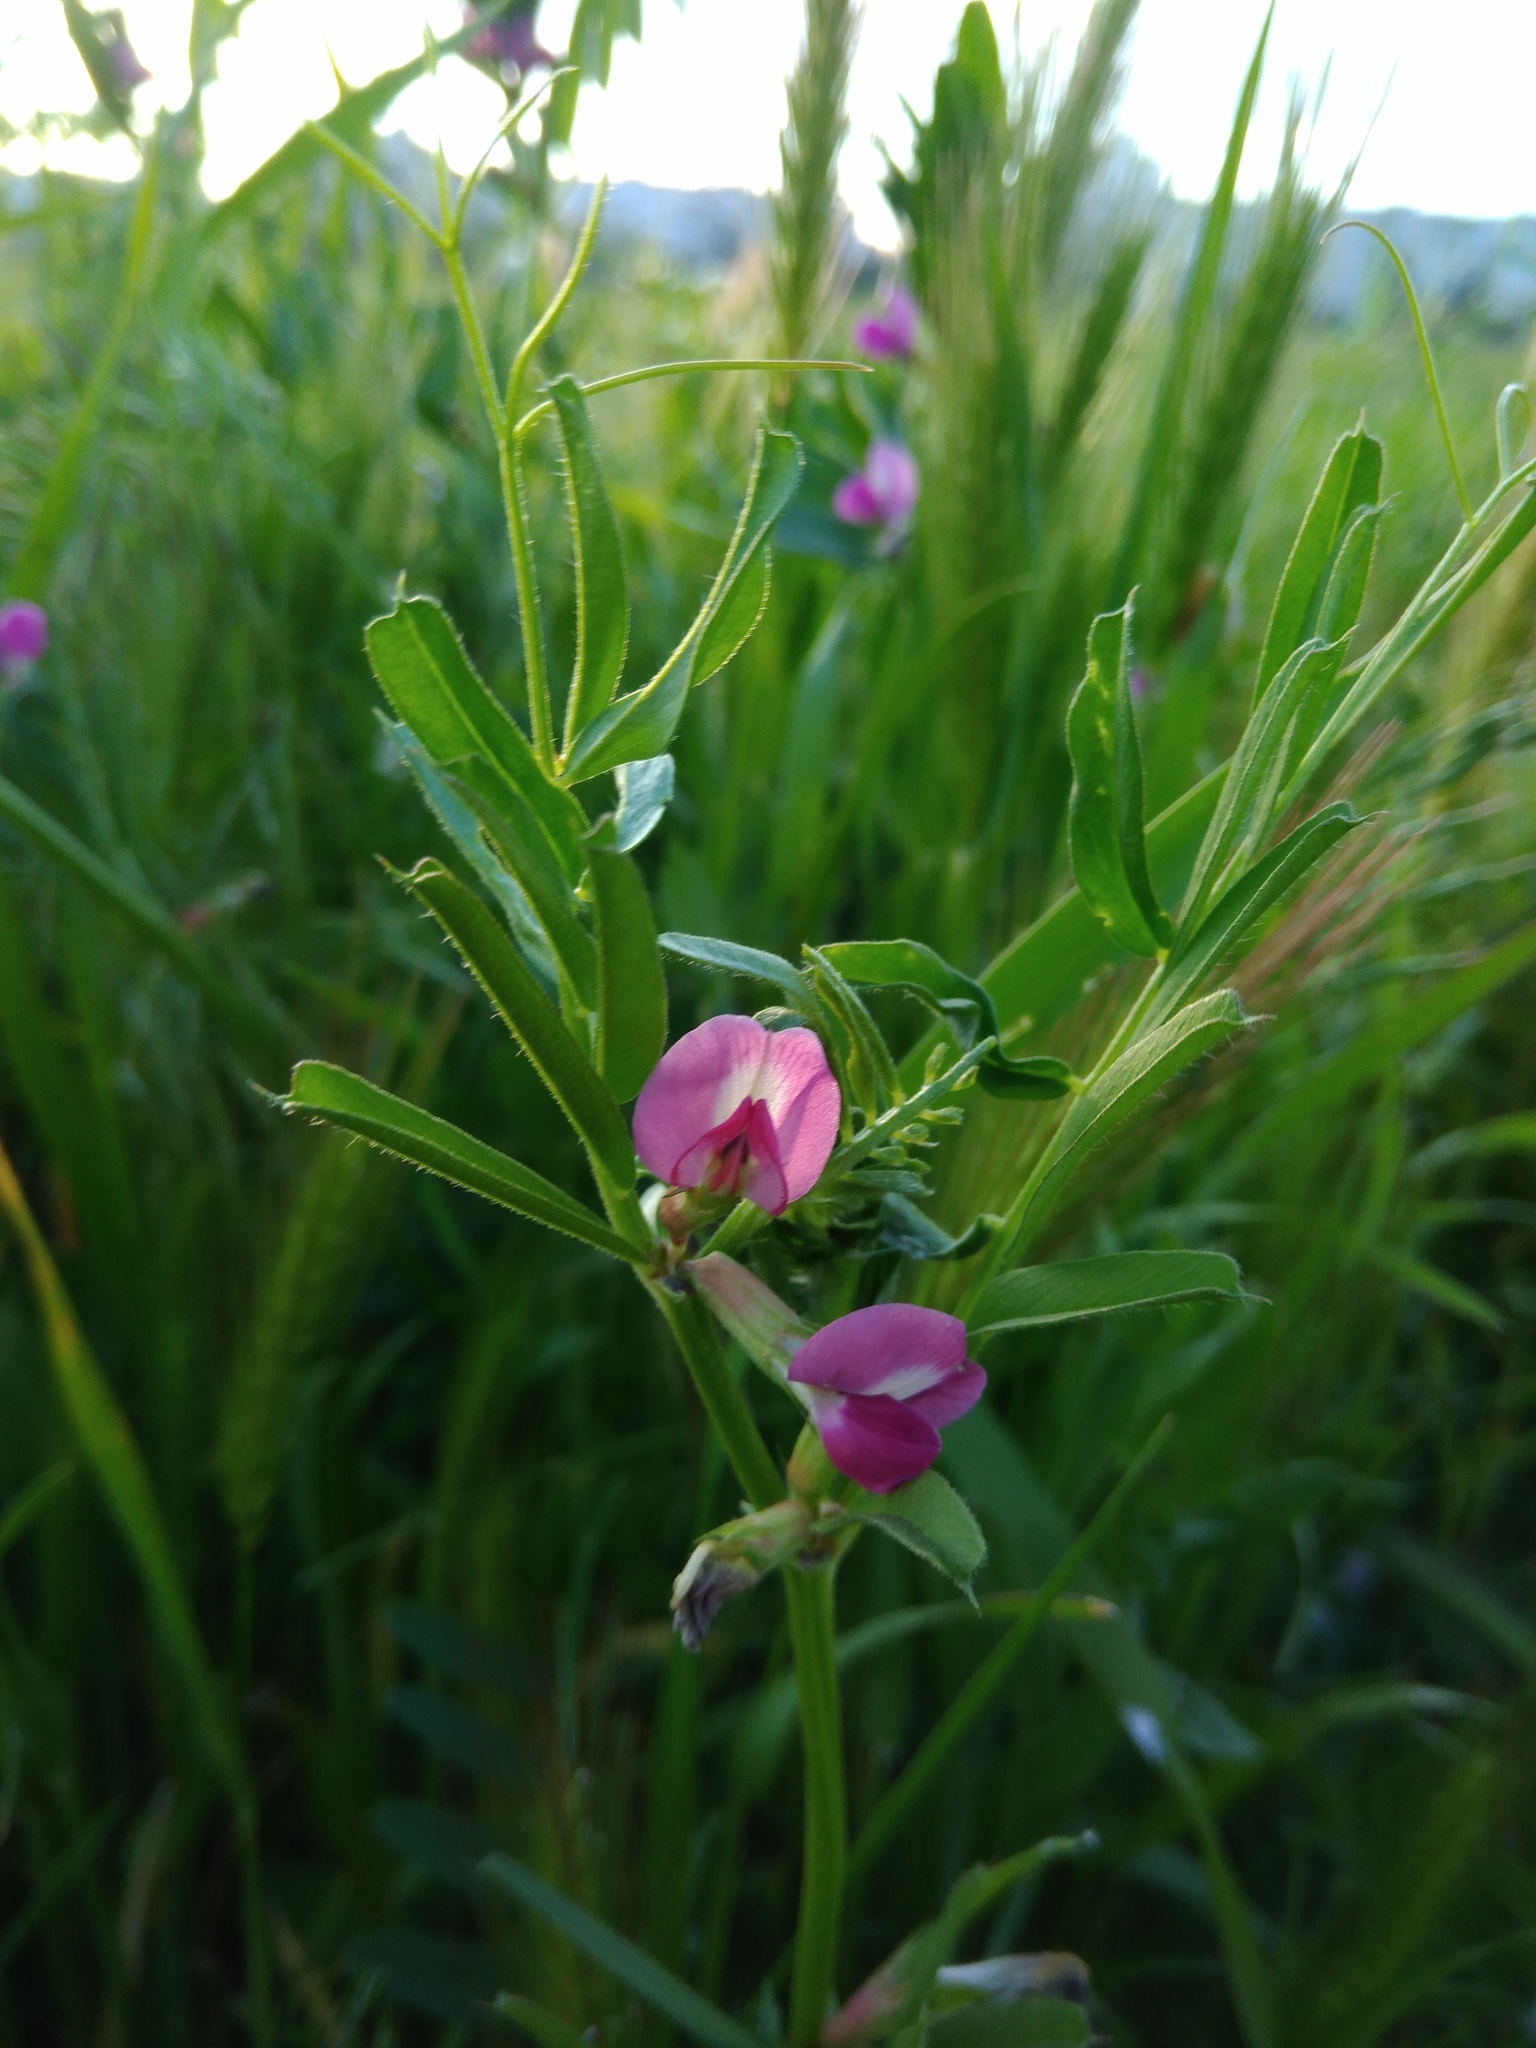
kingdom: Plantae
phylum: Tracheophyta
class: Magnoliopsida
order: Fabales
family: Fabaceae
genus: Vicia
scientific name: Vicia sativa
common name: Garden vetch
